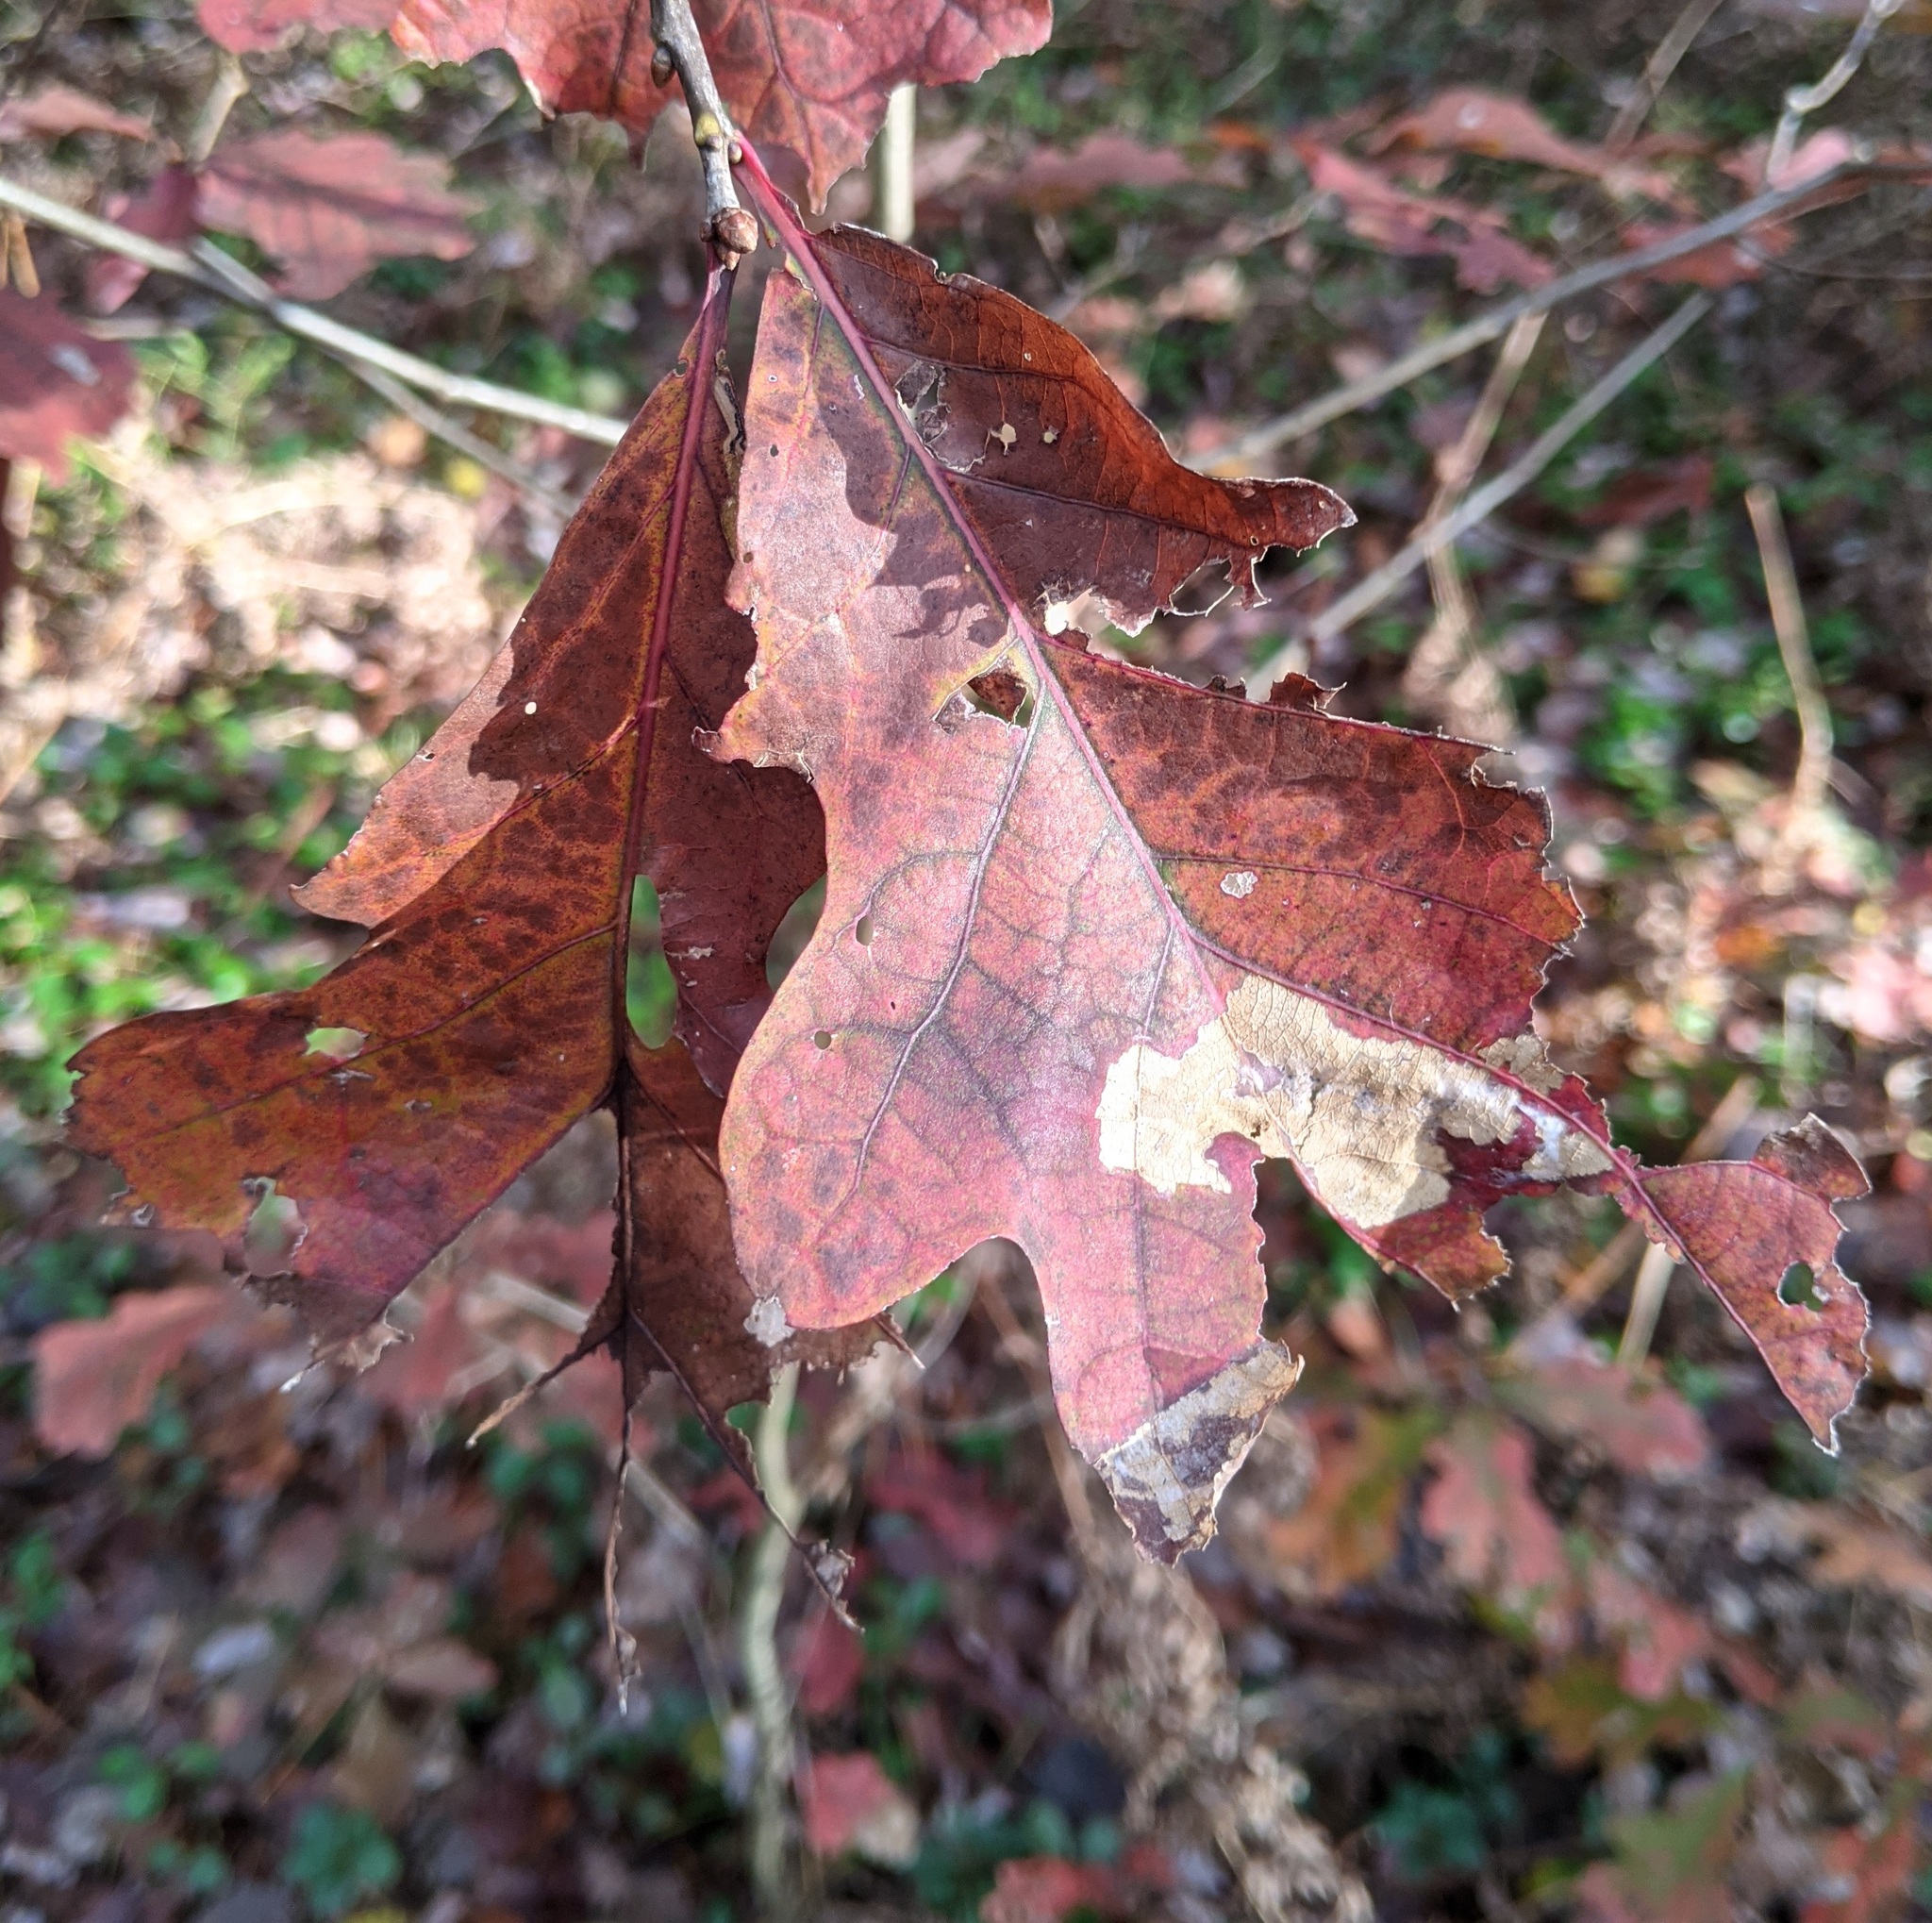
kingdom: Plantae
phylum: Tracheophyta
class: Magnoliopsida
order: Fagales
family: Fagaceae
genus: Quercus
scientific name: Quercus alba
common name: White oak
